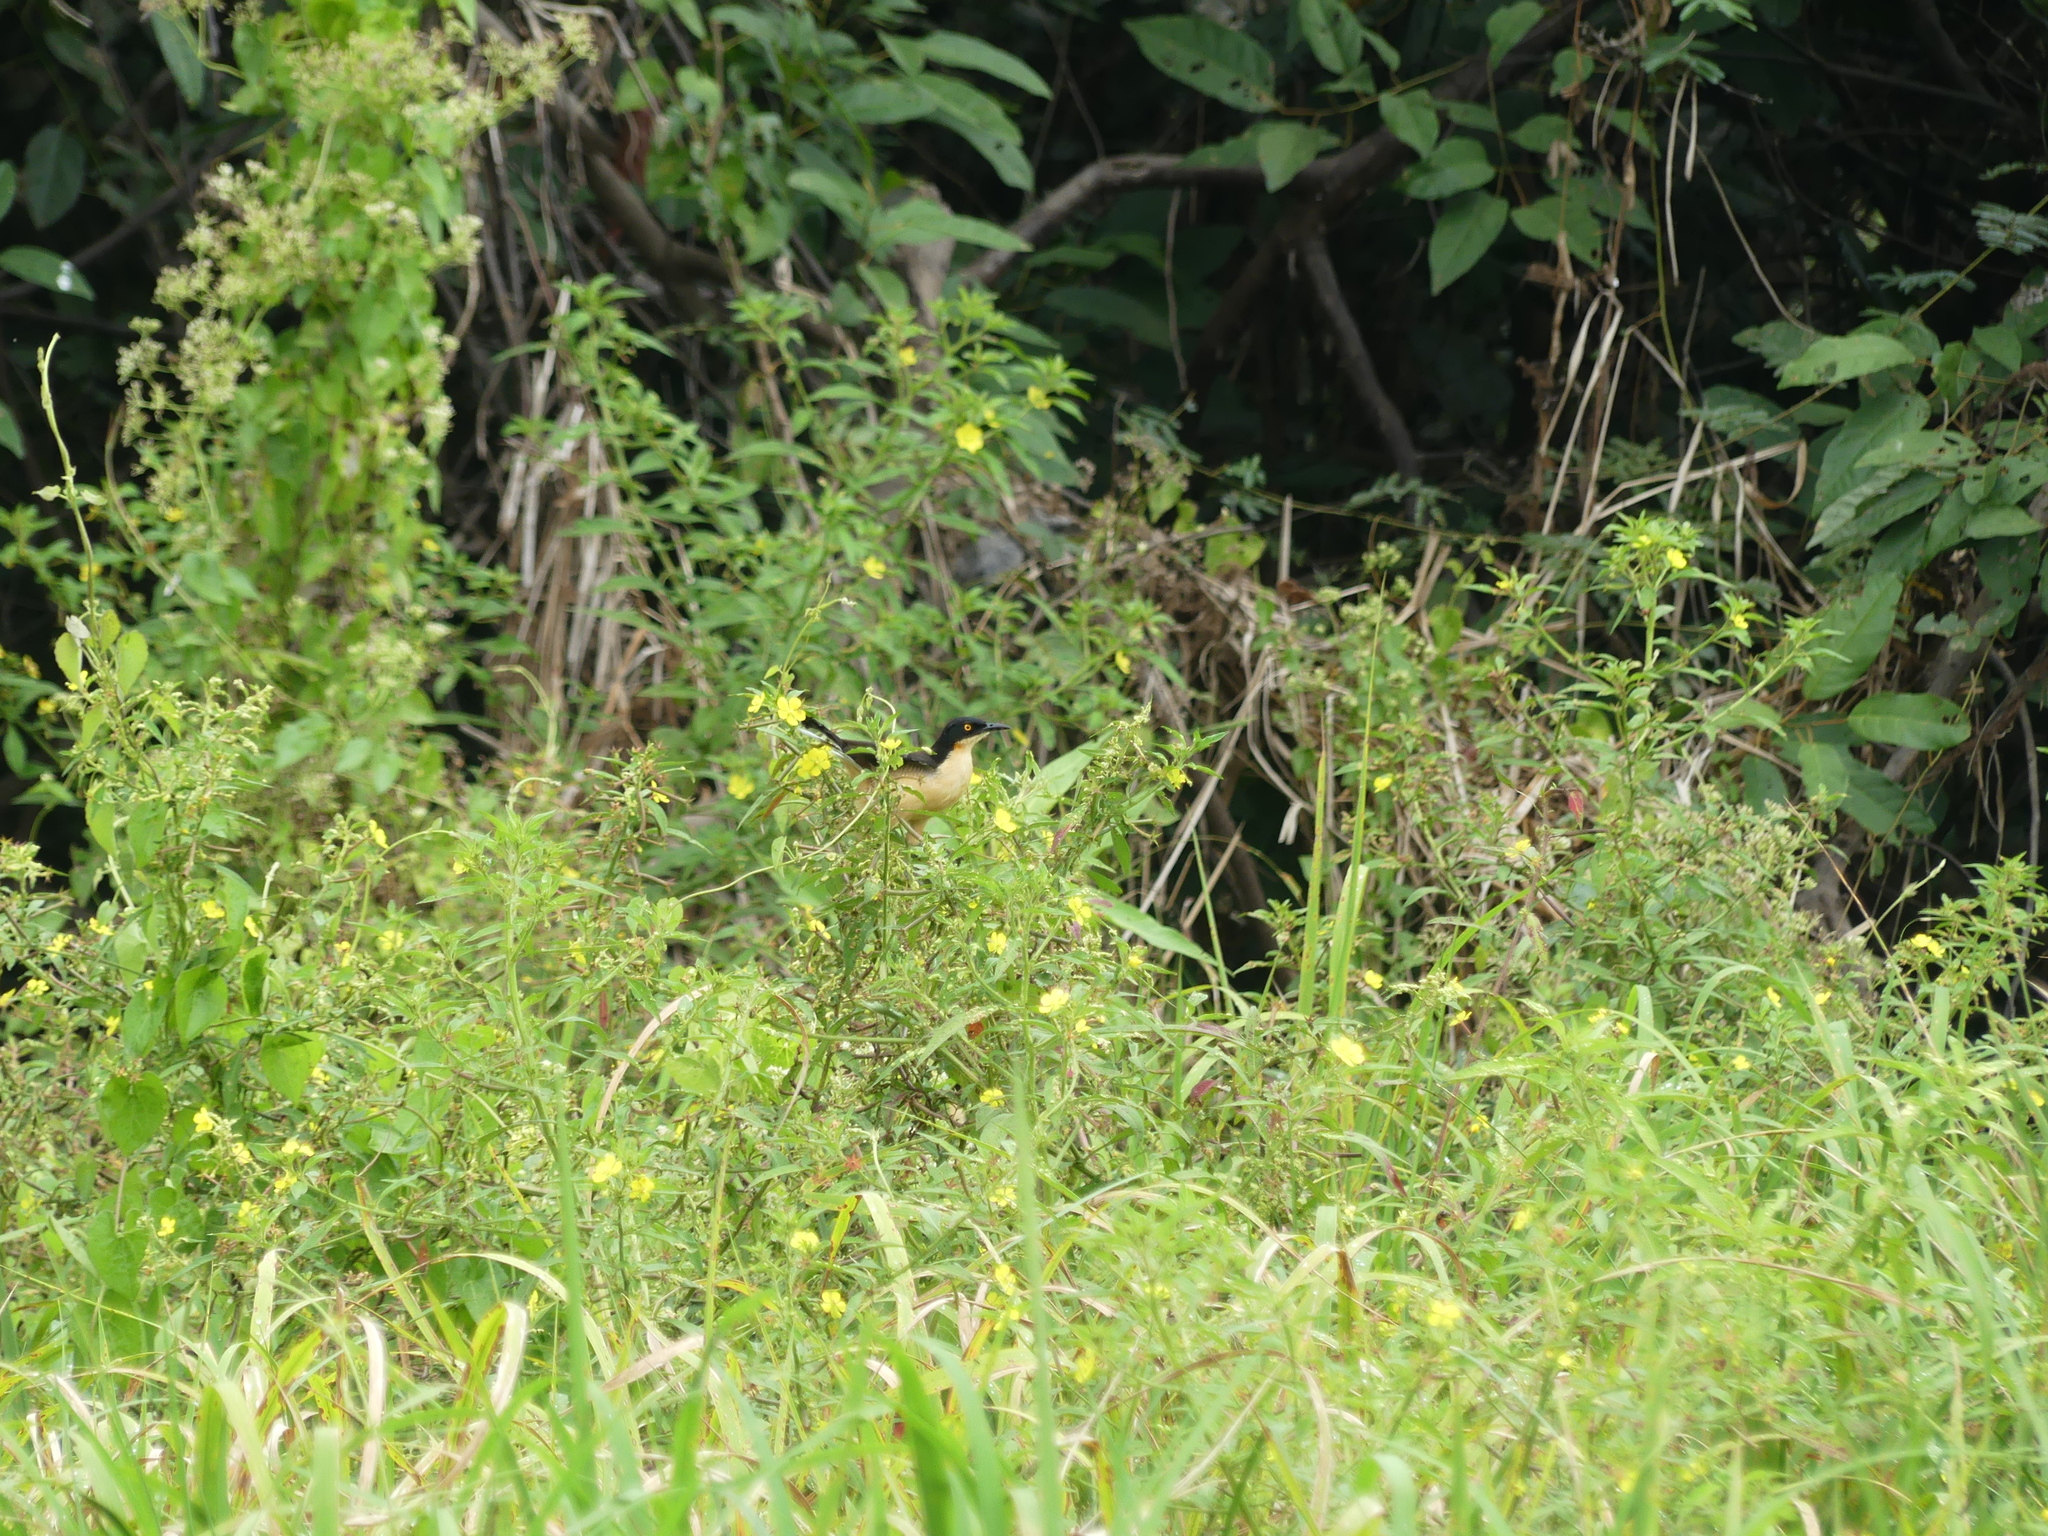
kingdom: Animalia
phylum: Chordata
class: Aves
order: Passeriformes
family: Donacobiidae
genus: Donacobius
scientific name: Donacobius atricapilla
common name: Black-capped donacobius
